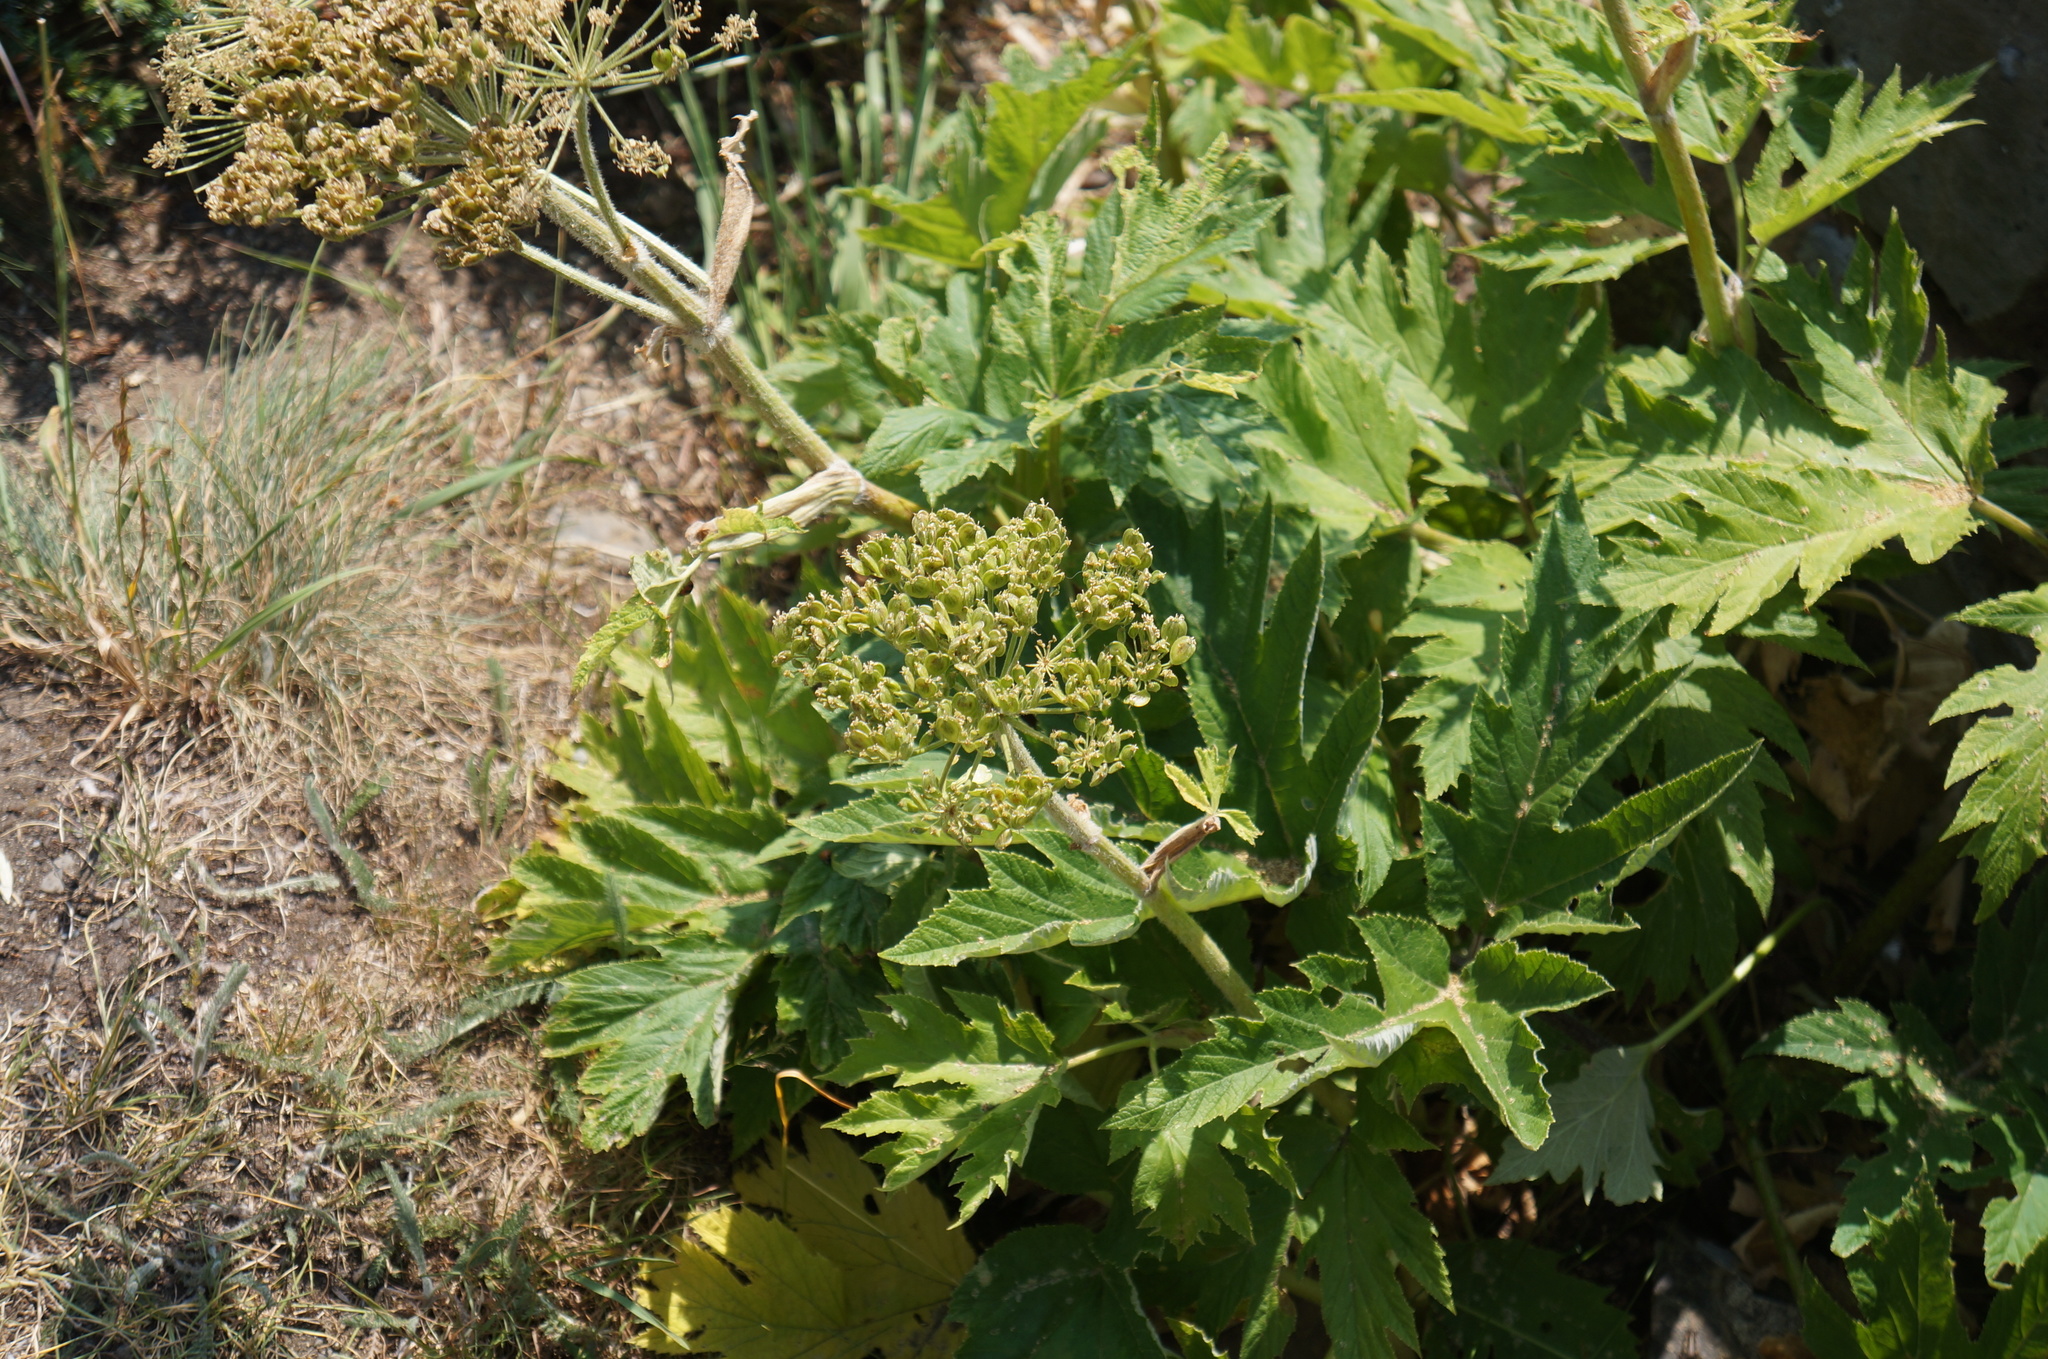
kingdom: Plantae
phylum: Tracheophyta
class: Magnoliopsida
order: Apiales
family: Apiaceae
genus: Heracleum
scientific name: Heracleum maximum
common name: American cow parsnip
